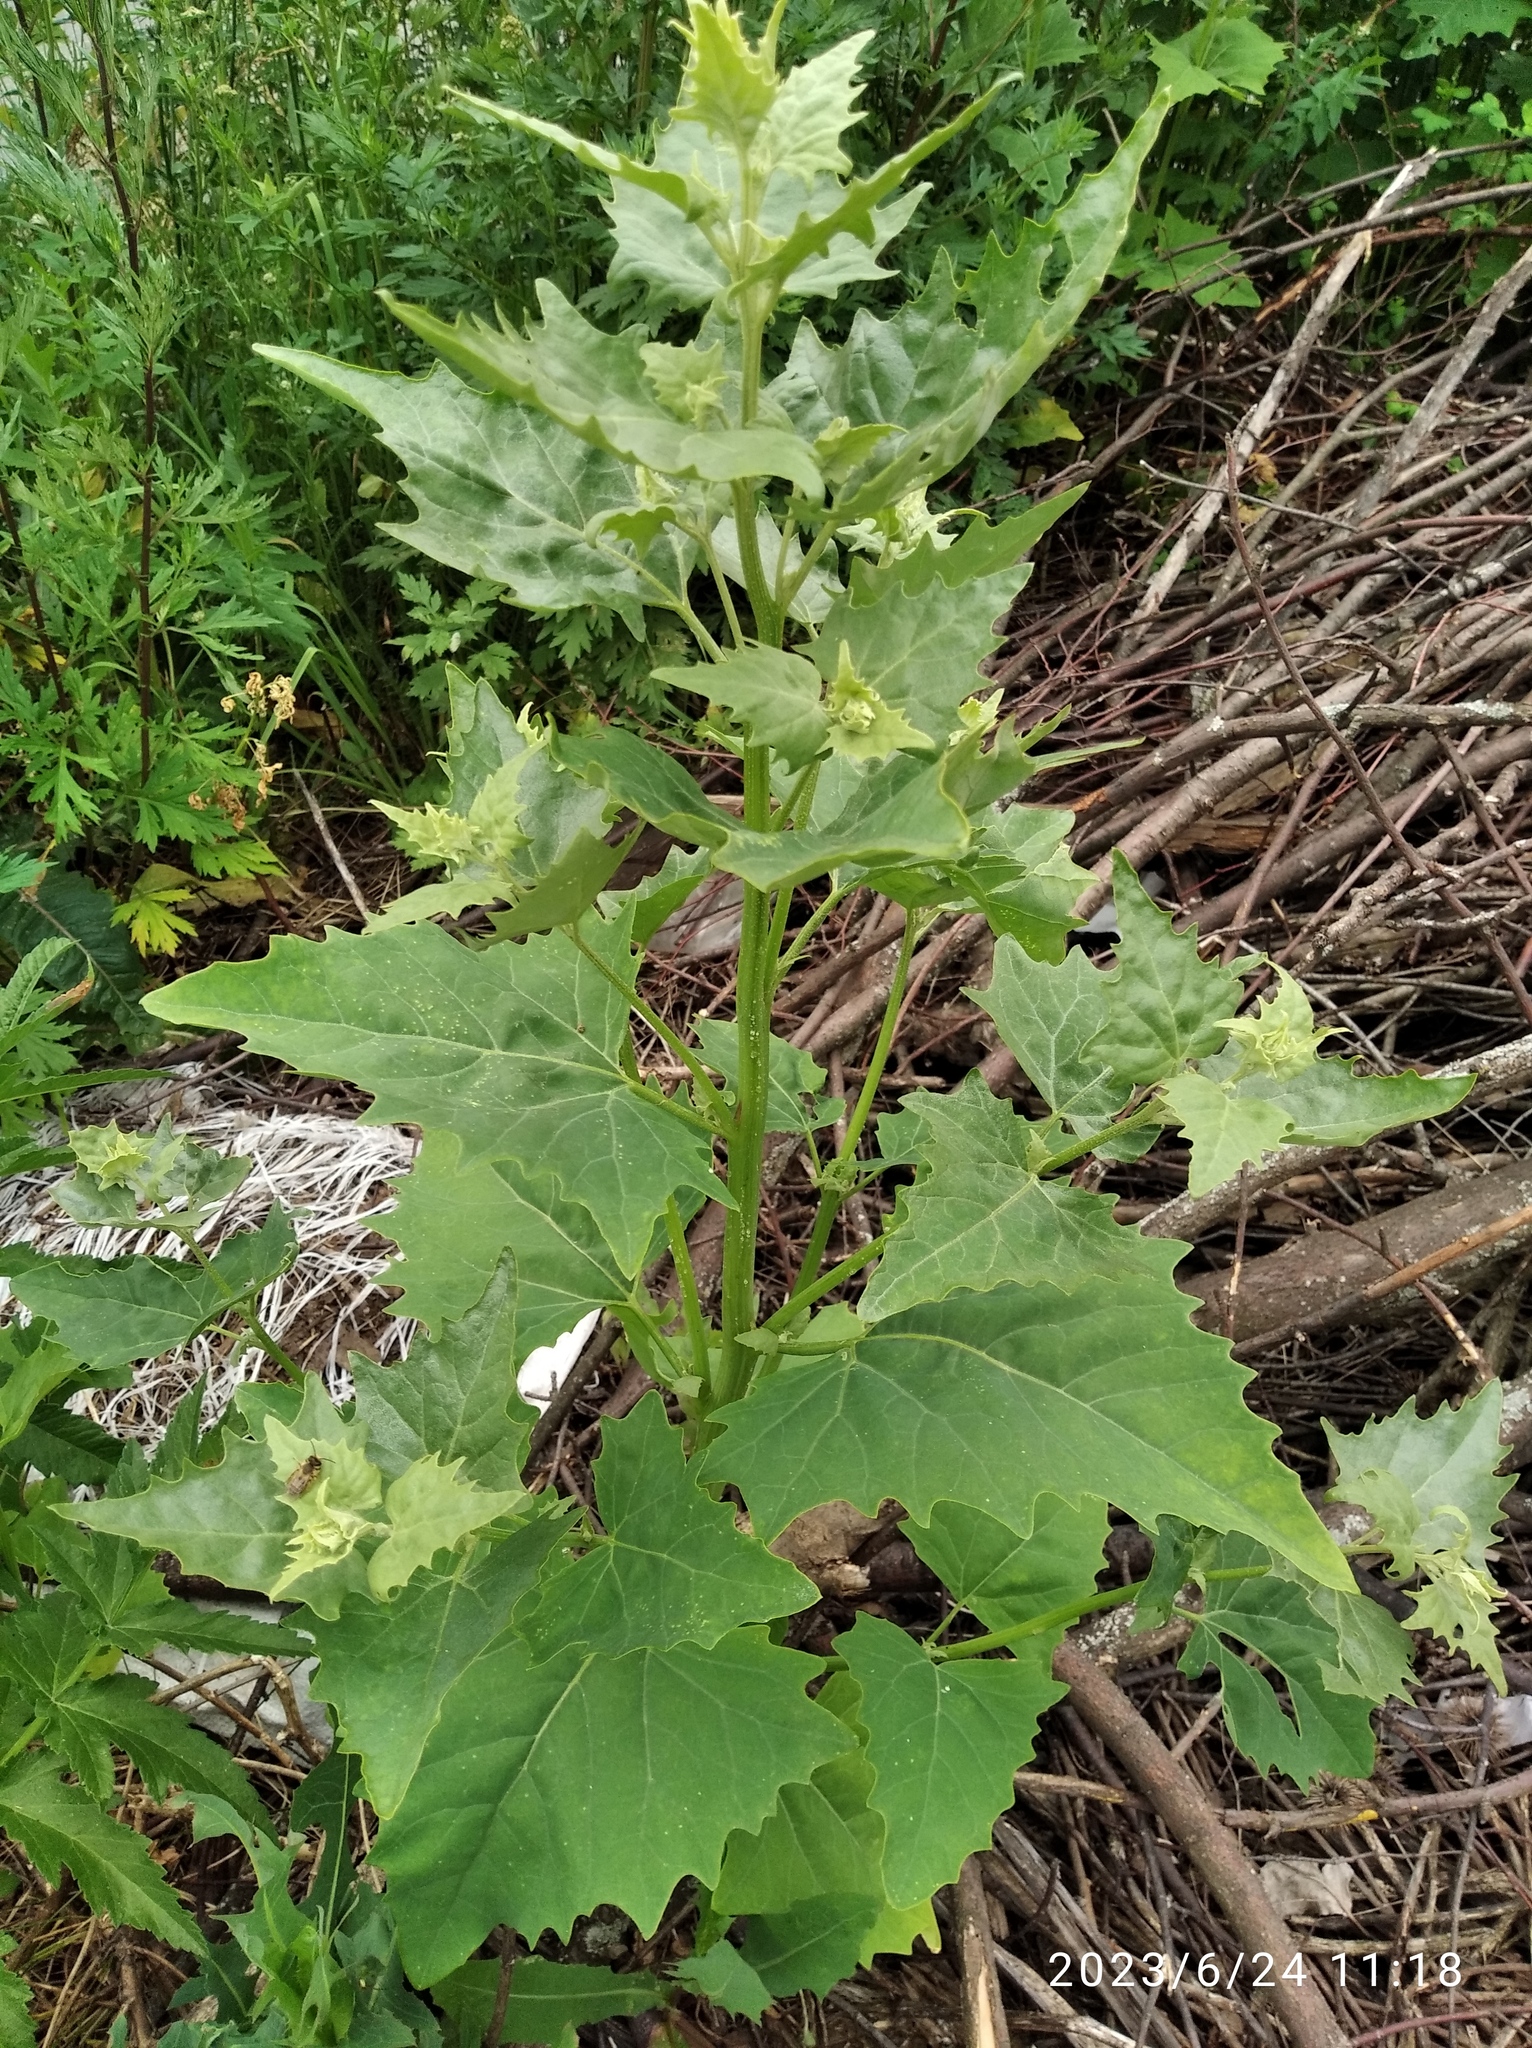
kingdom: Plantae
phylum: Tracheophyta
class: Magnoliopsida
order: Caryophyllales
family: Amaranthaceae
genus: Atriplex
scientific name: Atriplex sagittata
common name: Purple orache
